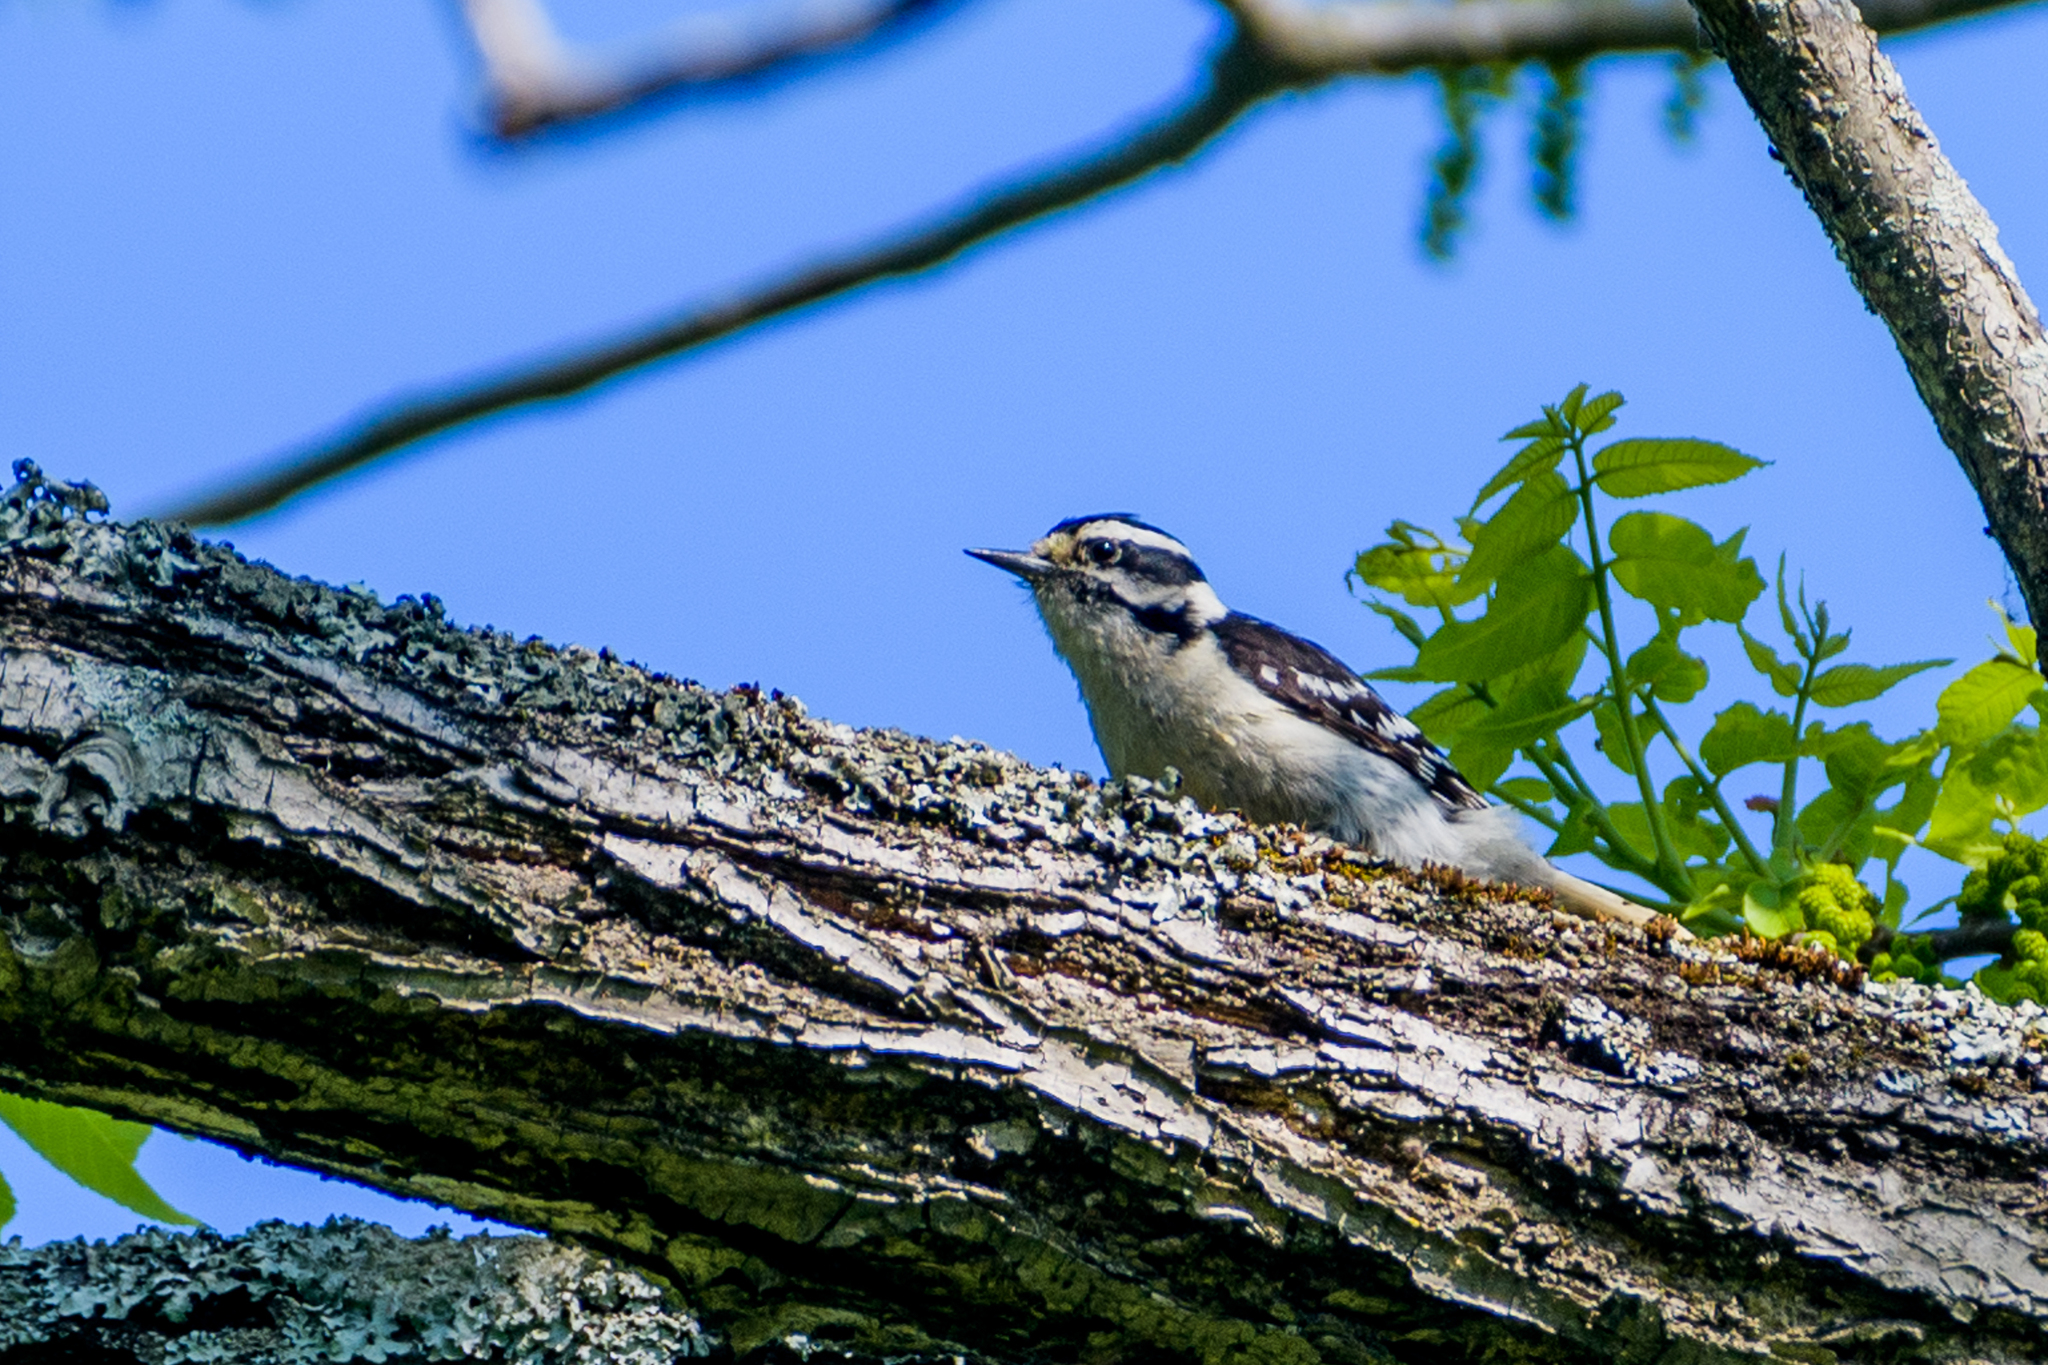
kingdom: Animalia
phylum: Chordata
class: Aves
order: Piciformes
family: Picidae
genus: Dryobates
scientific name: Dryobates pubescens
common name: Downy woodpecker
